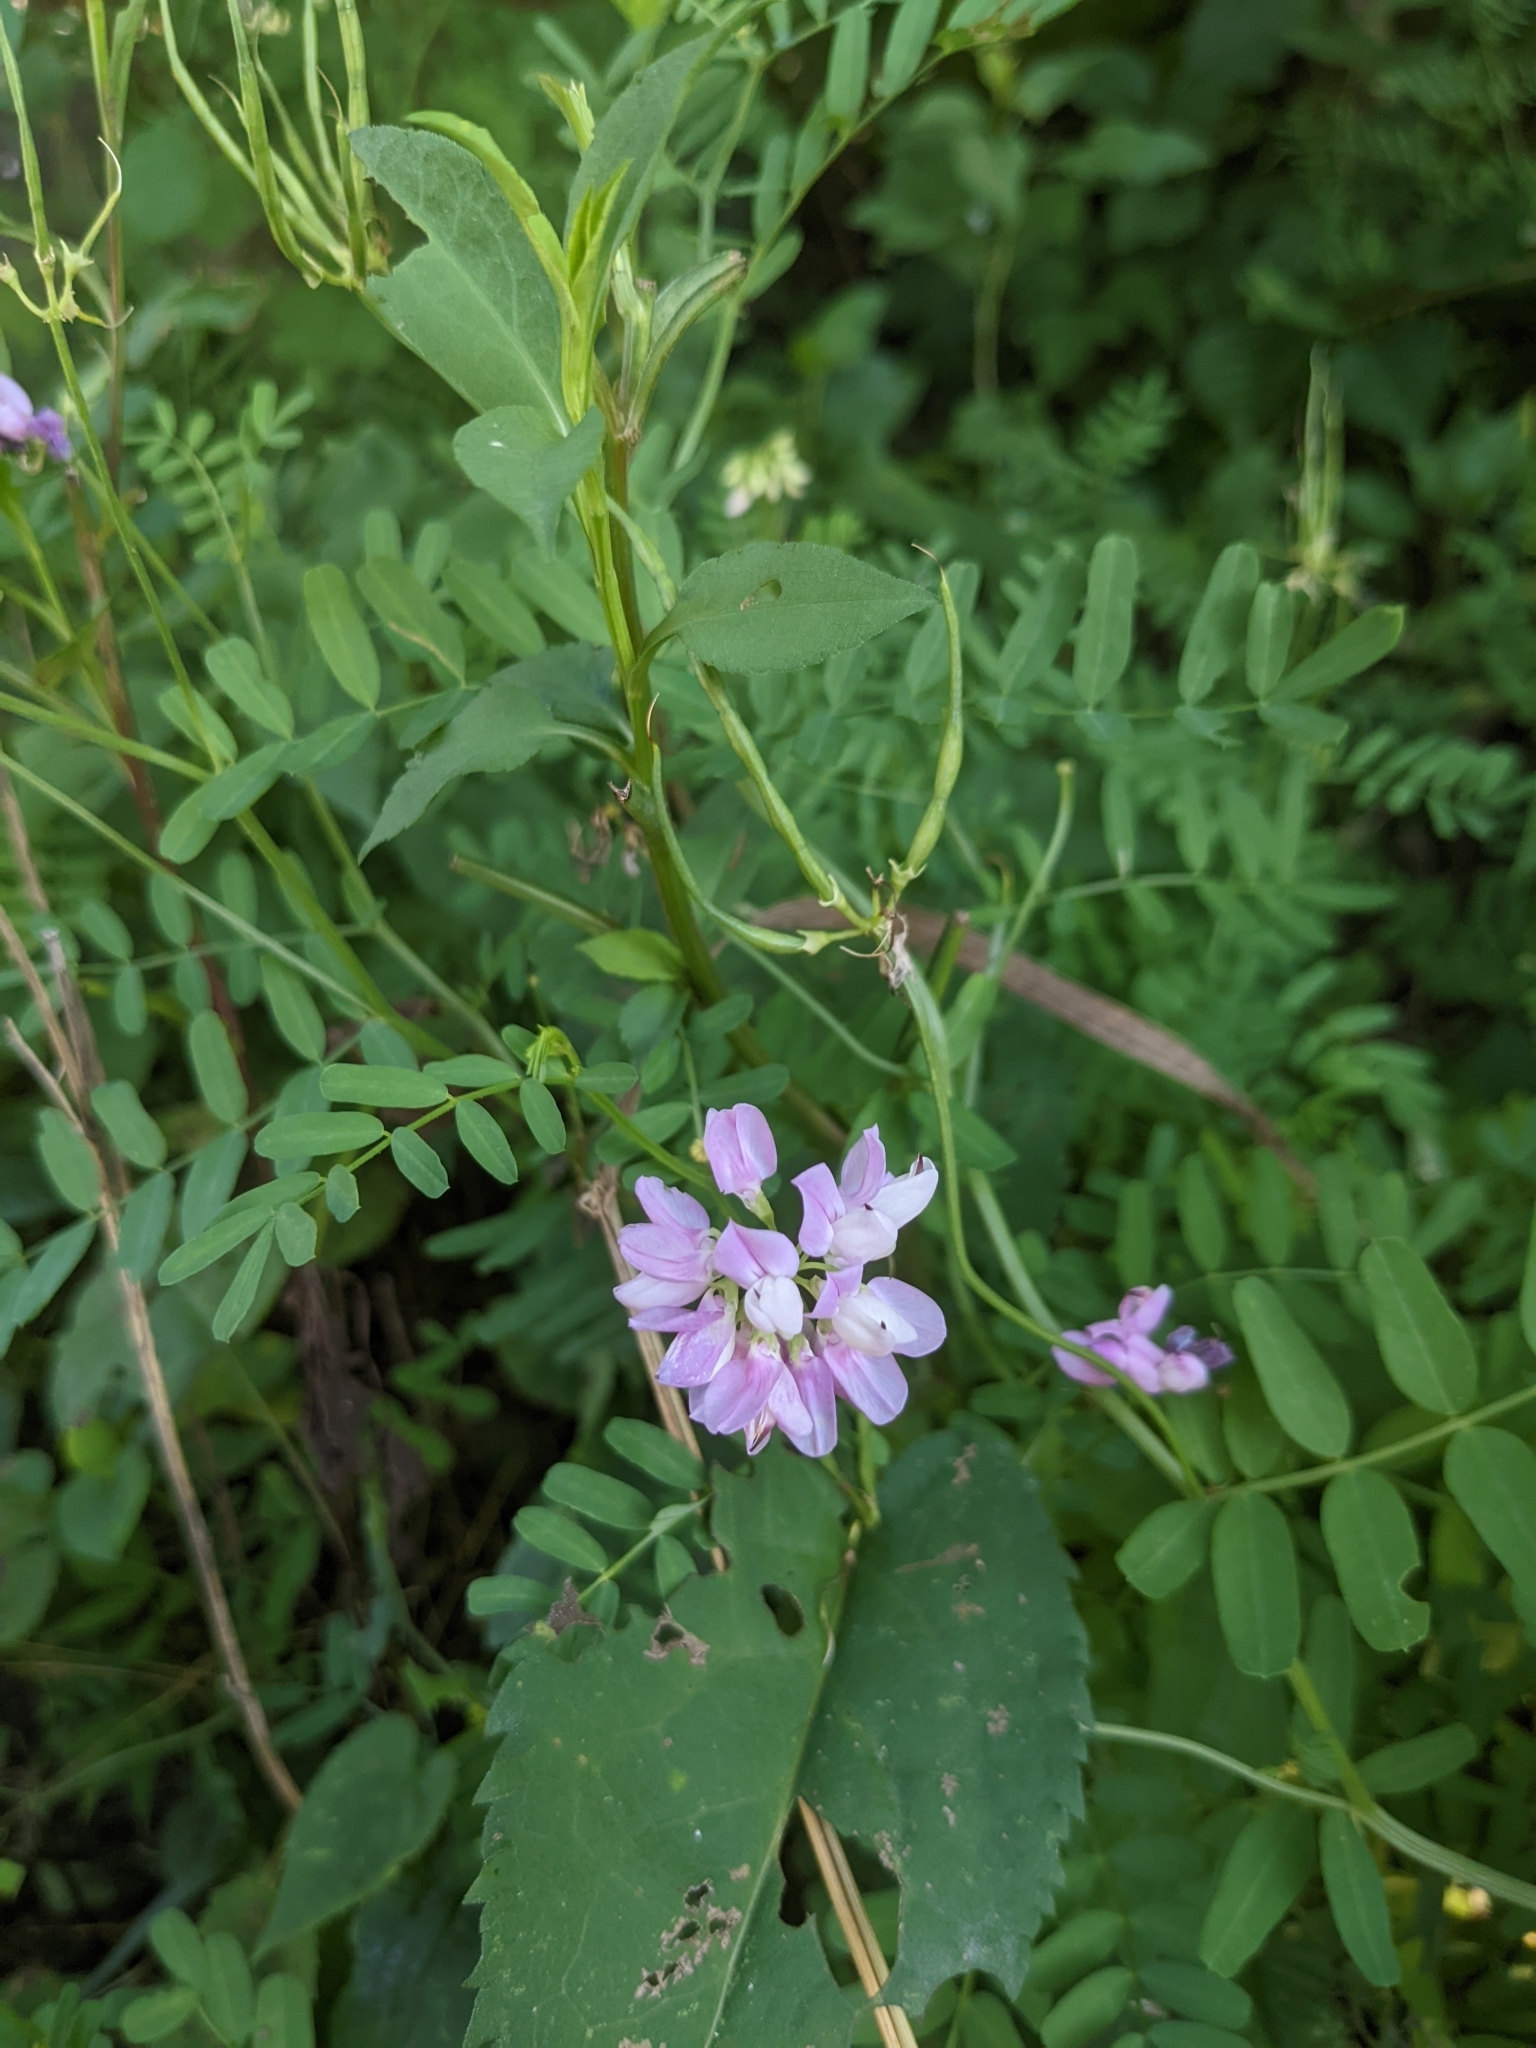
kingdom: Plantae
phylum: Tracheophyta
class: Magnoliopsida
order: Fabales
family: Fabaceae
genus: Coronilla
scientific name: Coronilla varia
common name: Crownvetch
